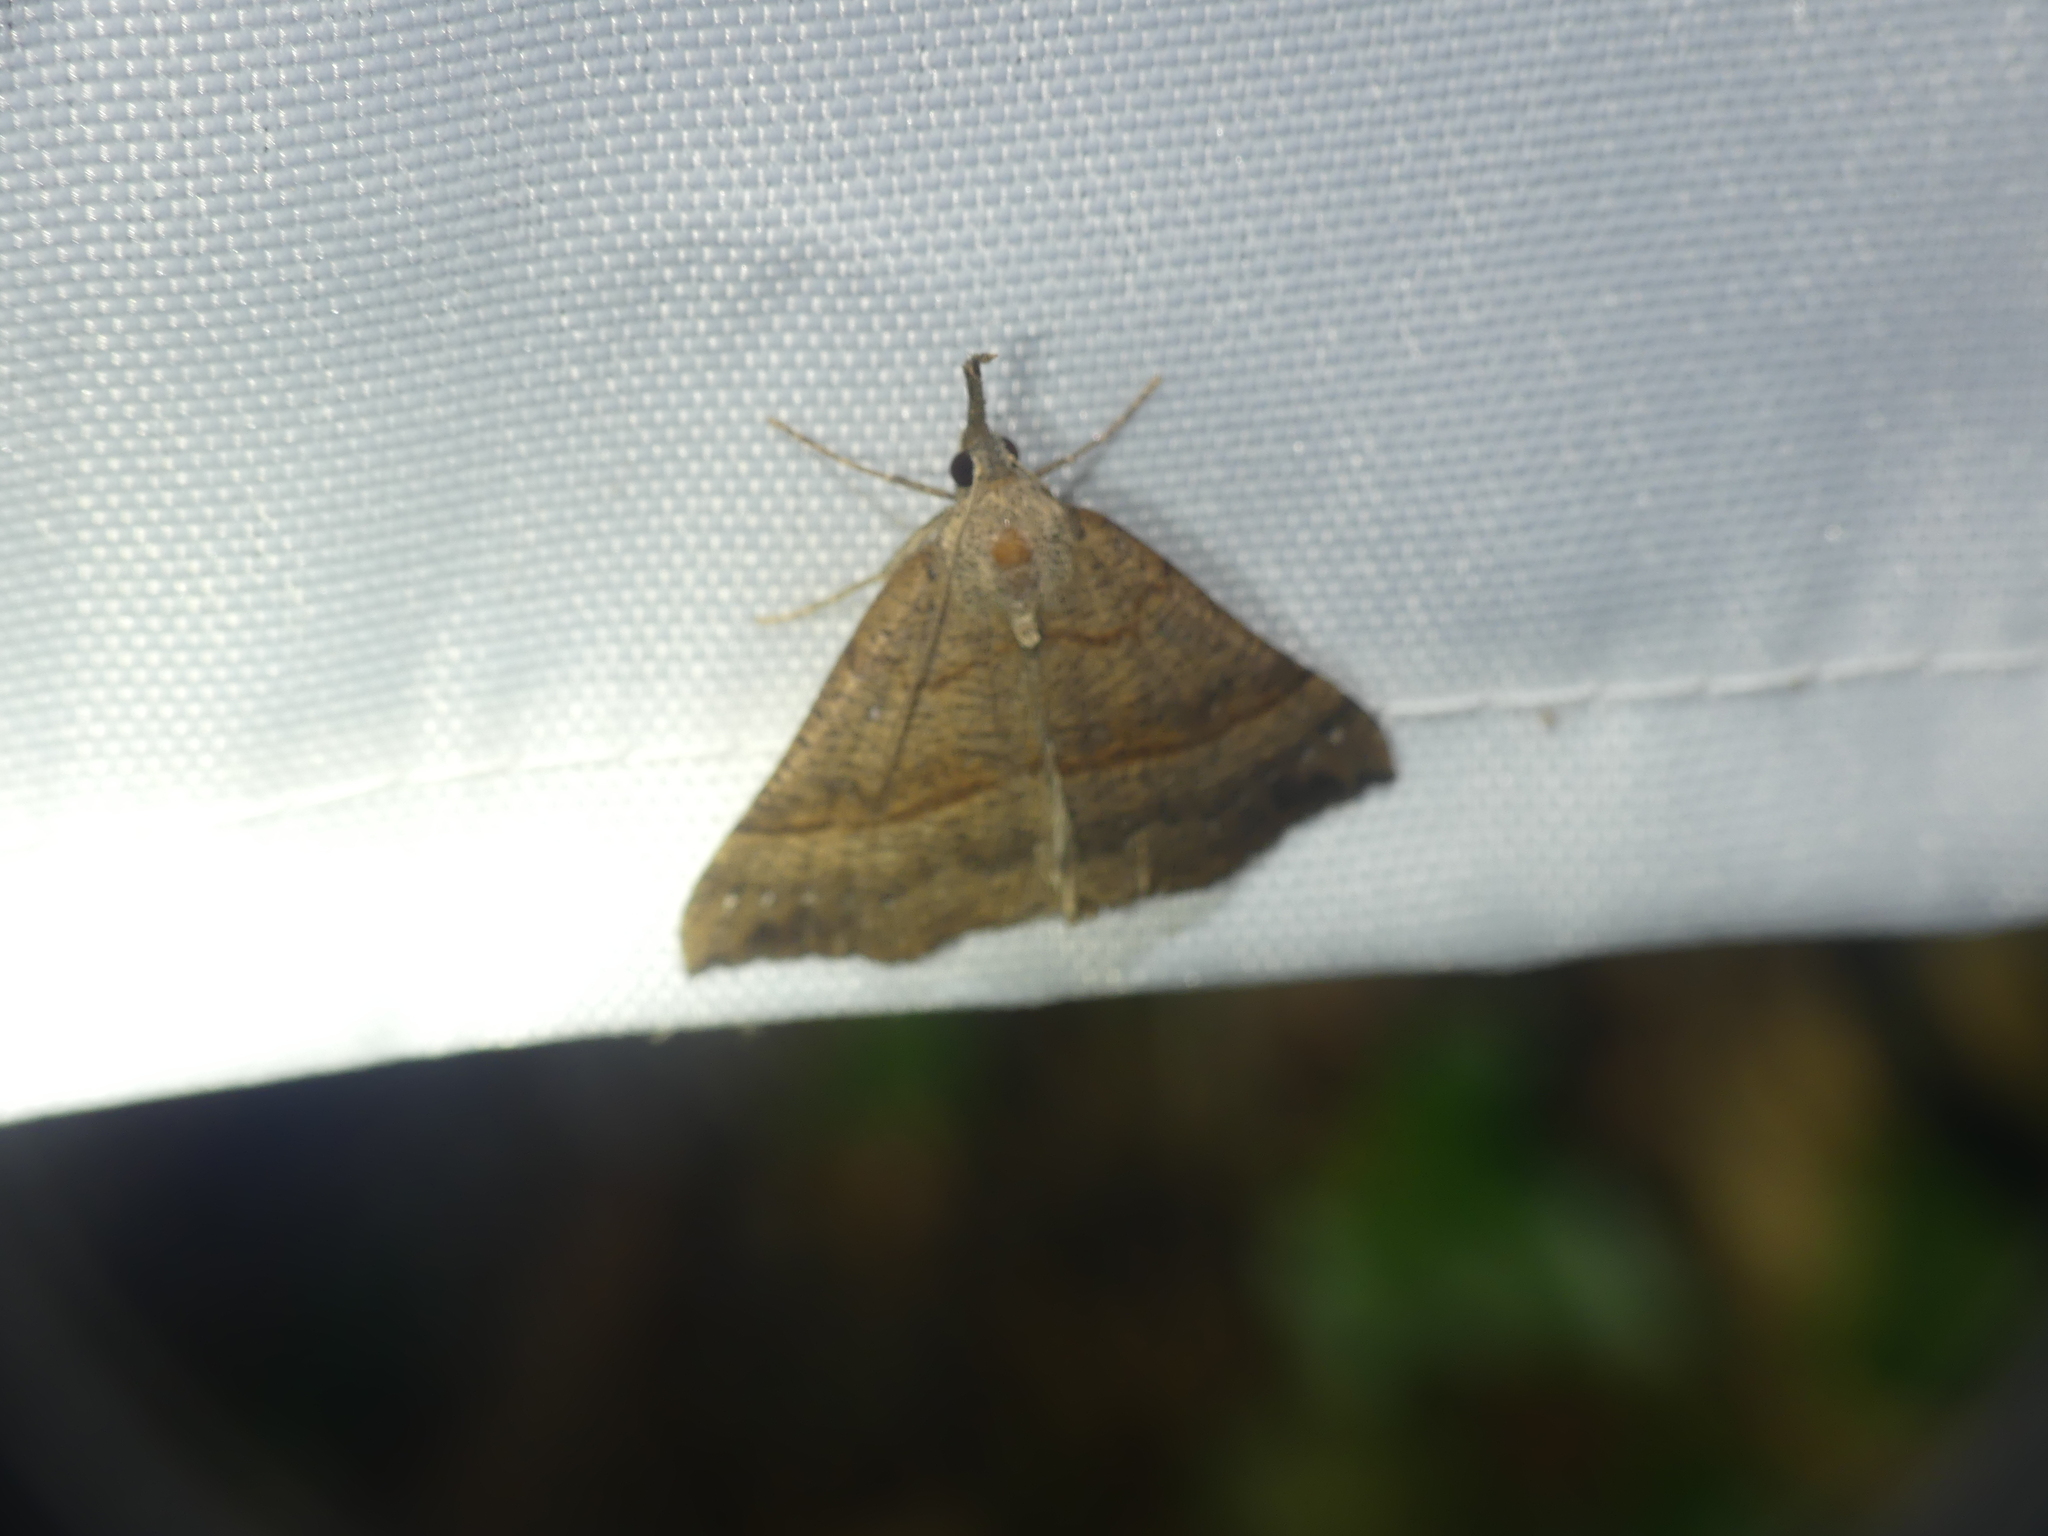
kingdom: Animalia
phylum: Arthropoda
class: Insecta
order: Lepidoptera
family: Erebidae
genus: Hypena
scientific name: Hypena proboscidalis
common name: Snout
